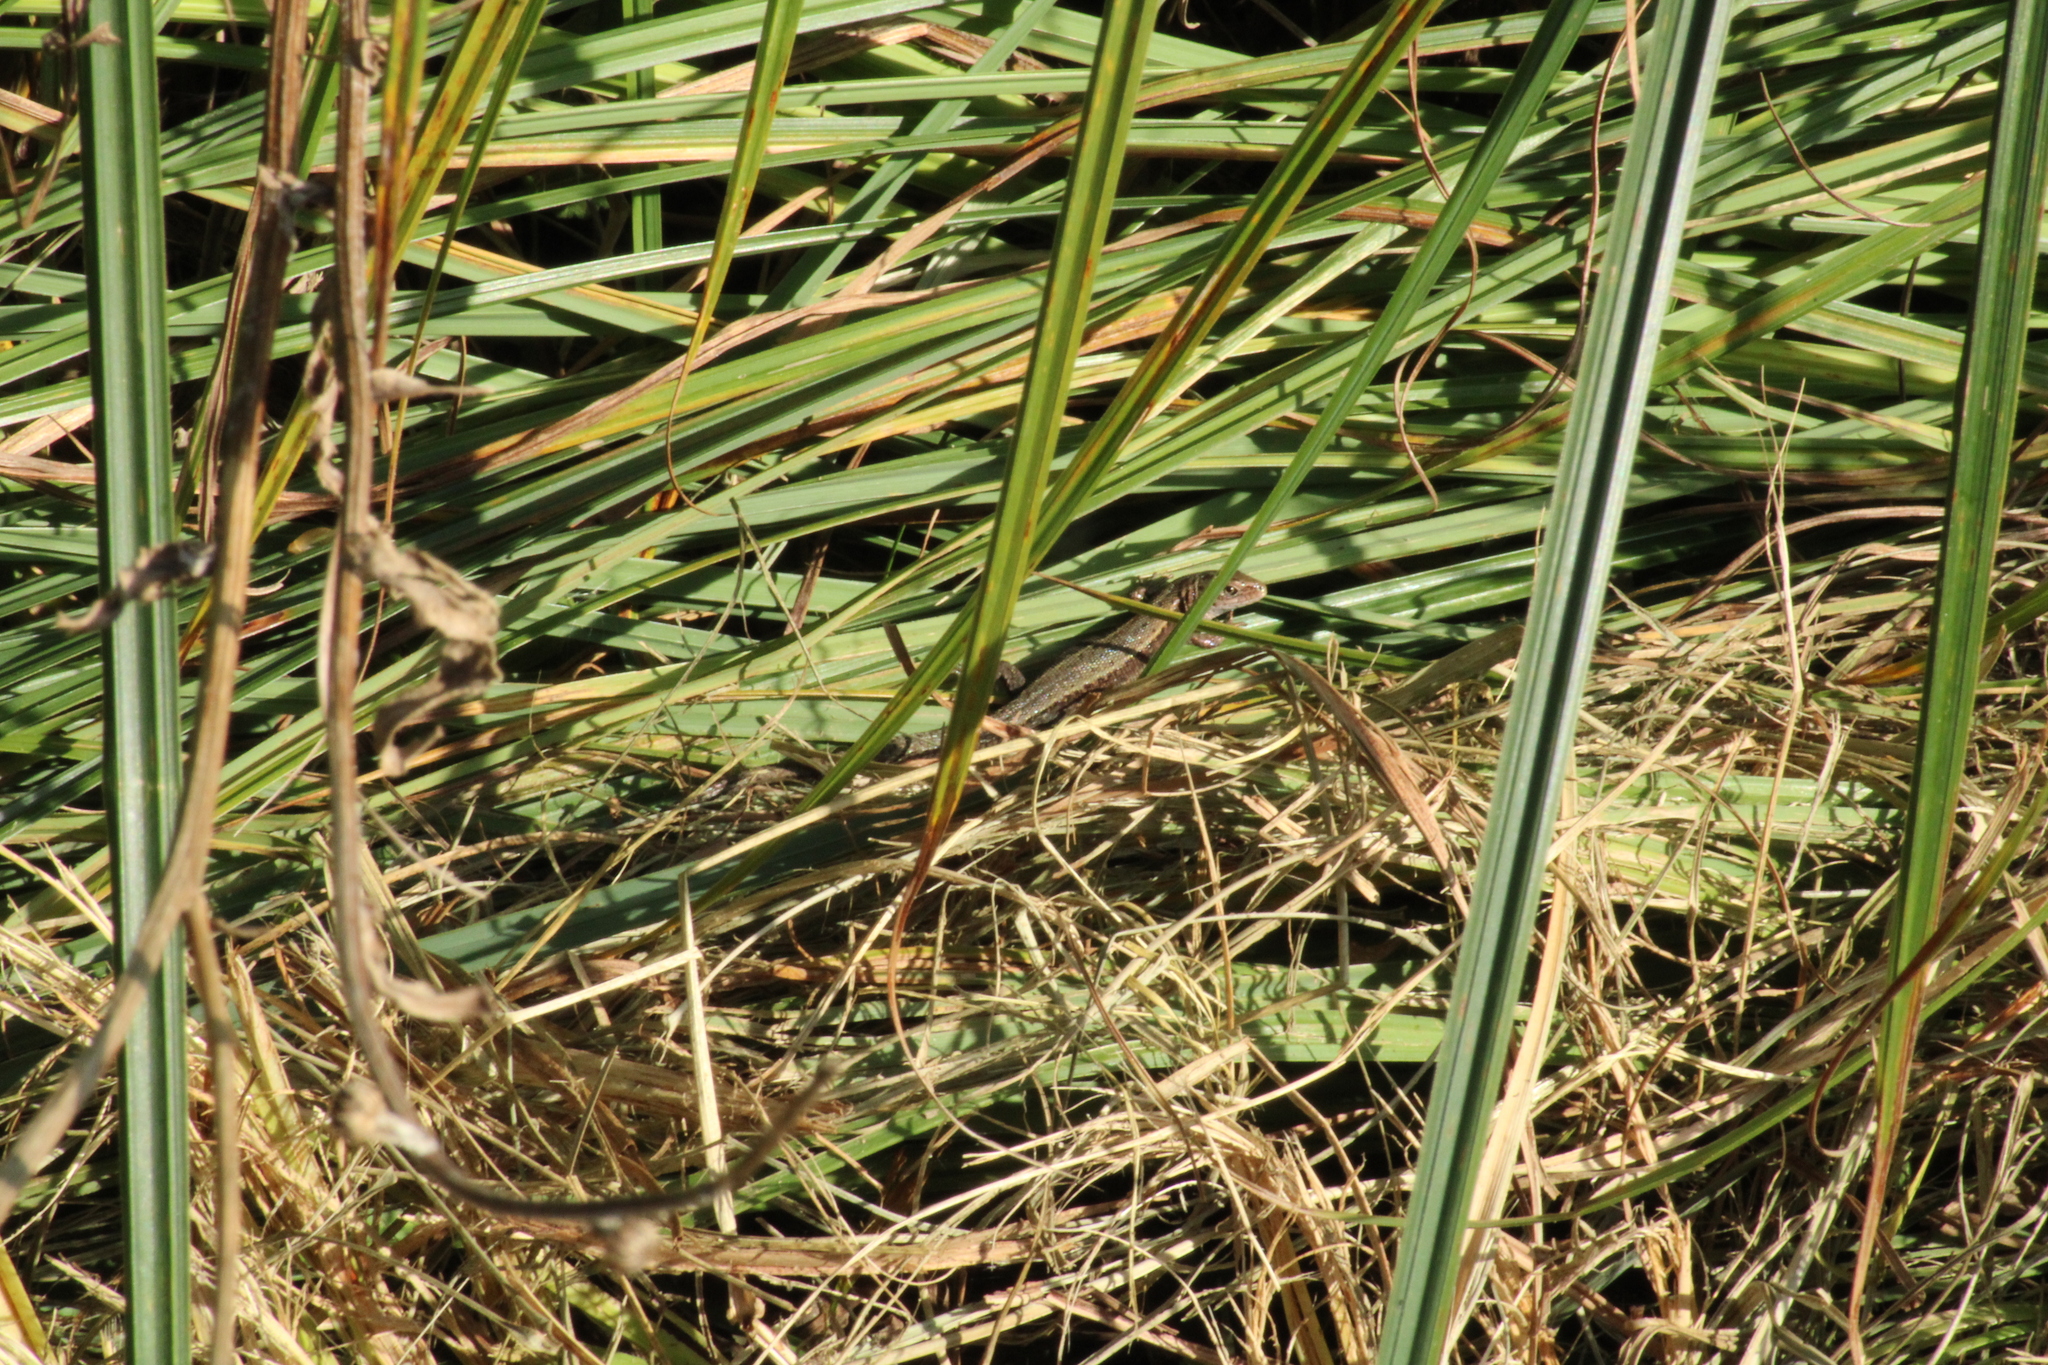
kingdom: Animalia
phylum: Chordata
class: Squamata
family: Lacertidae
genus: Zootoca
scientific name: Zootoca vivipara
